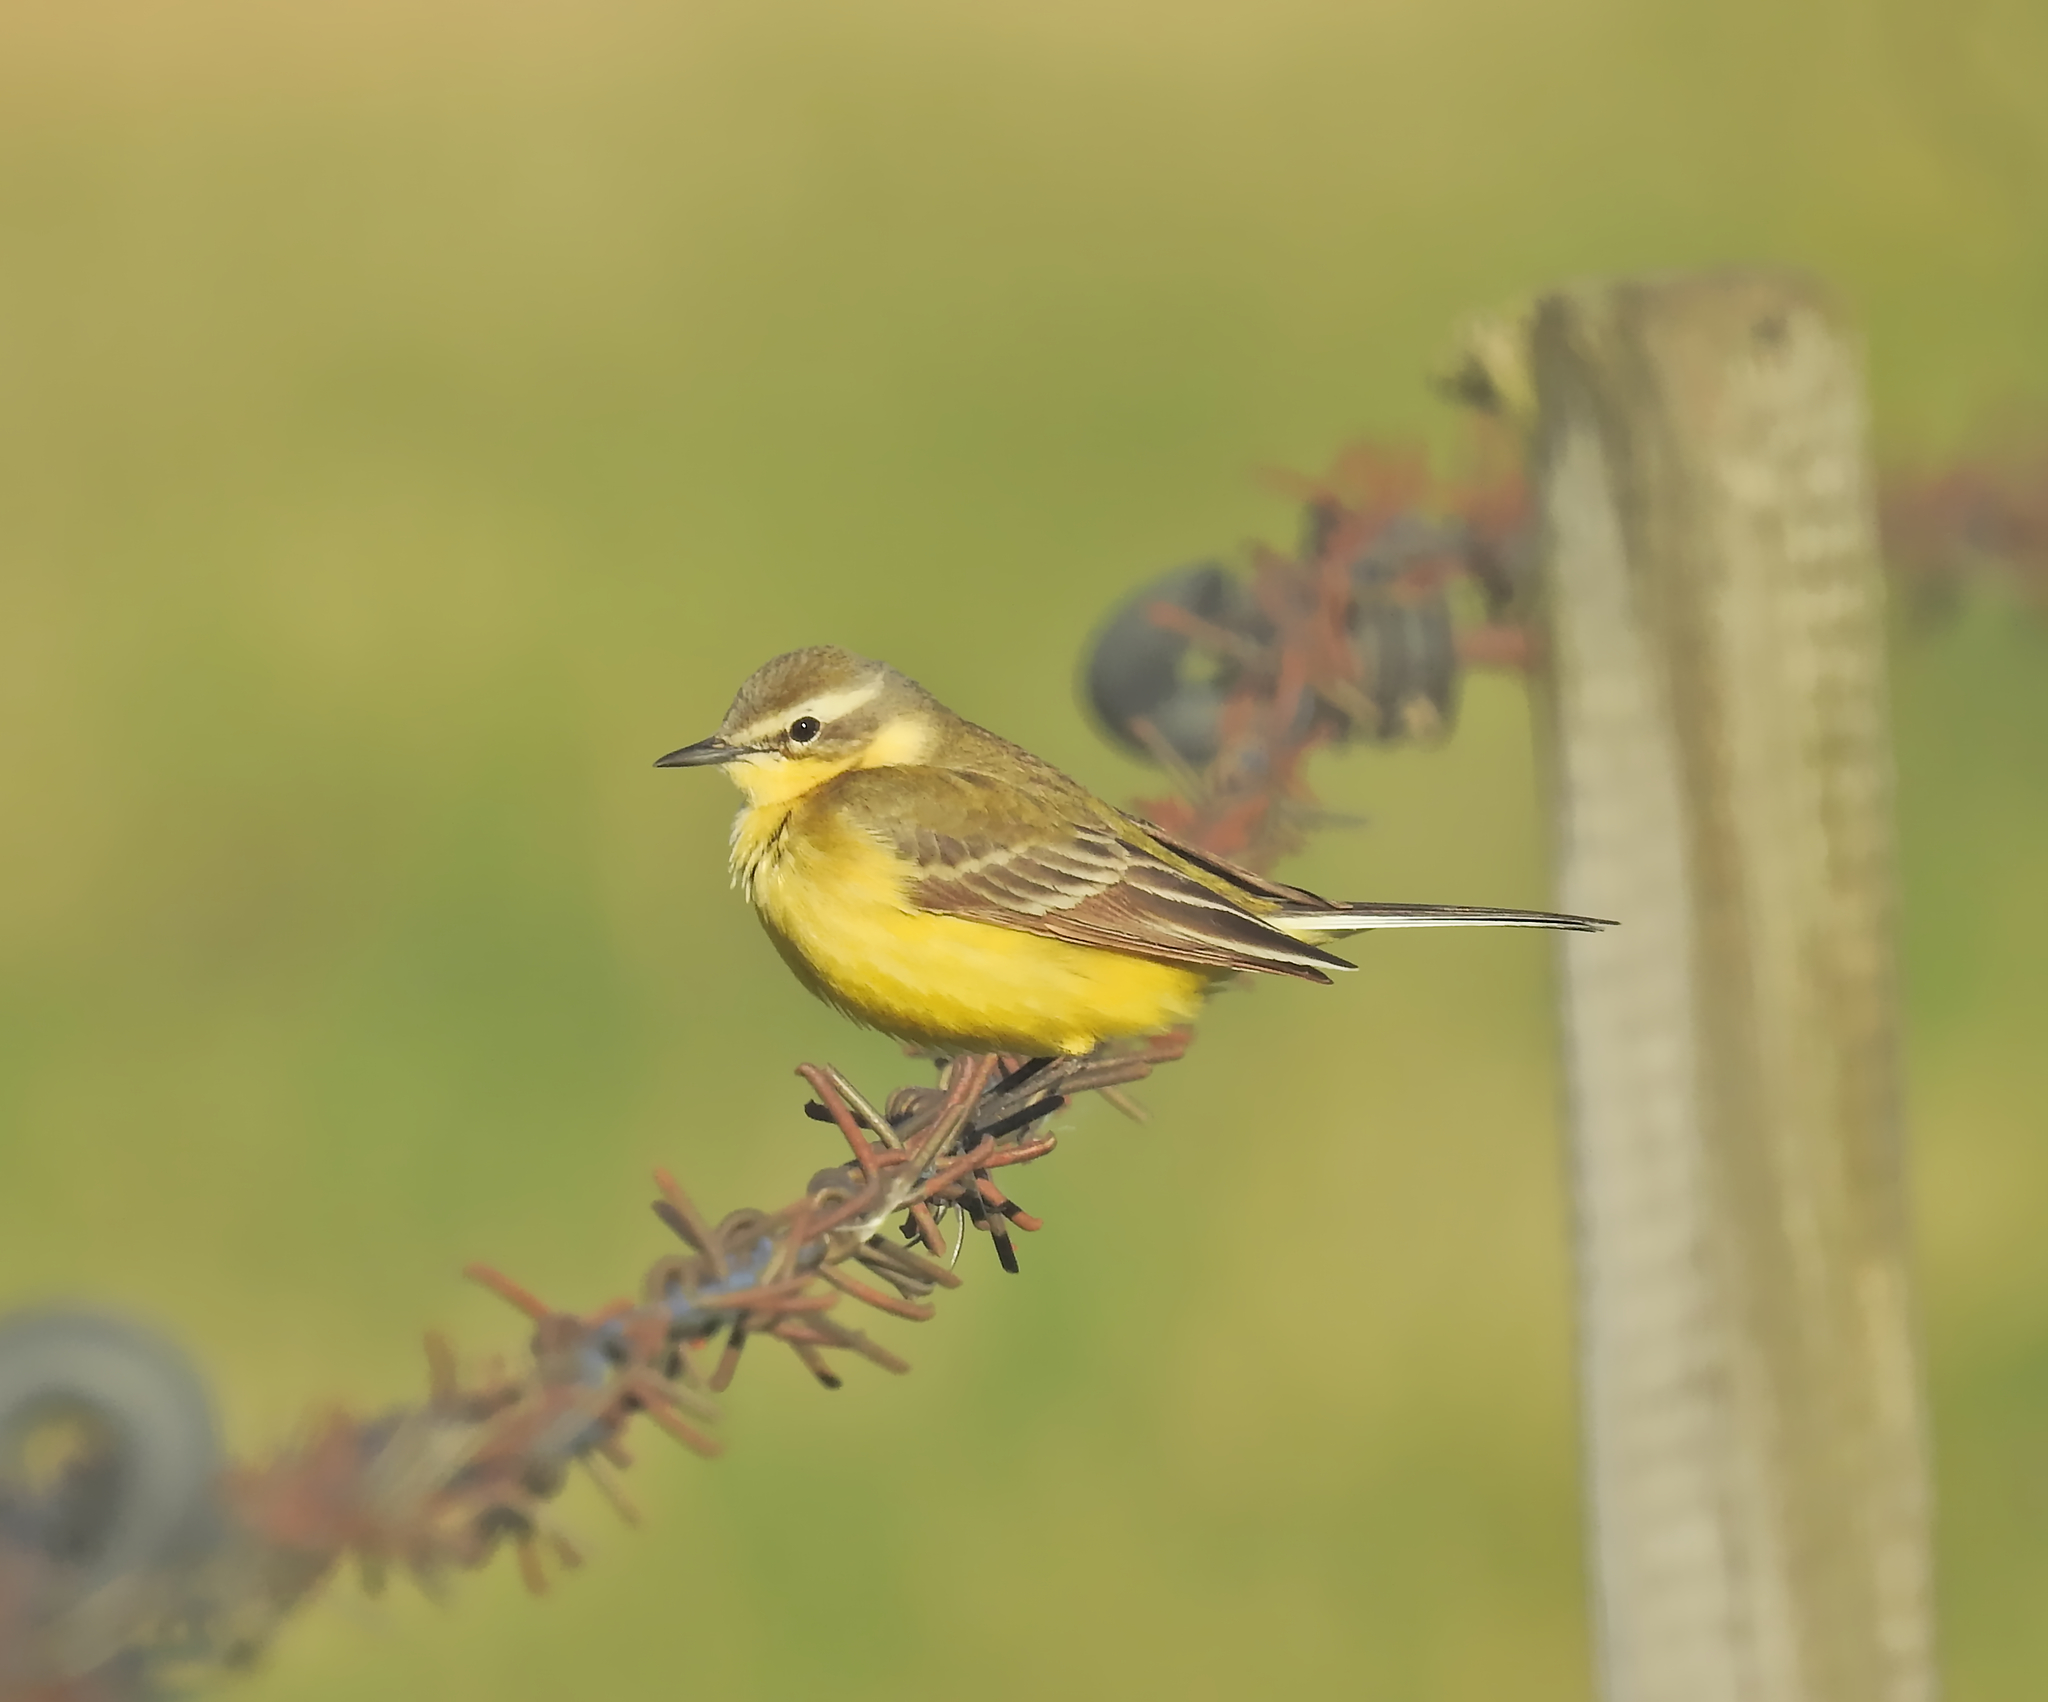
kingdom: Animalia
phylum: Chordata
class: Aves
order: Passeriformes
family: Motacillidae
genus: Motacilla
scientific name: Motacilla flava
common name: Western yellow wagtail
